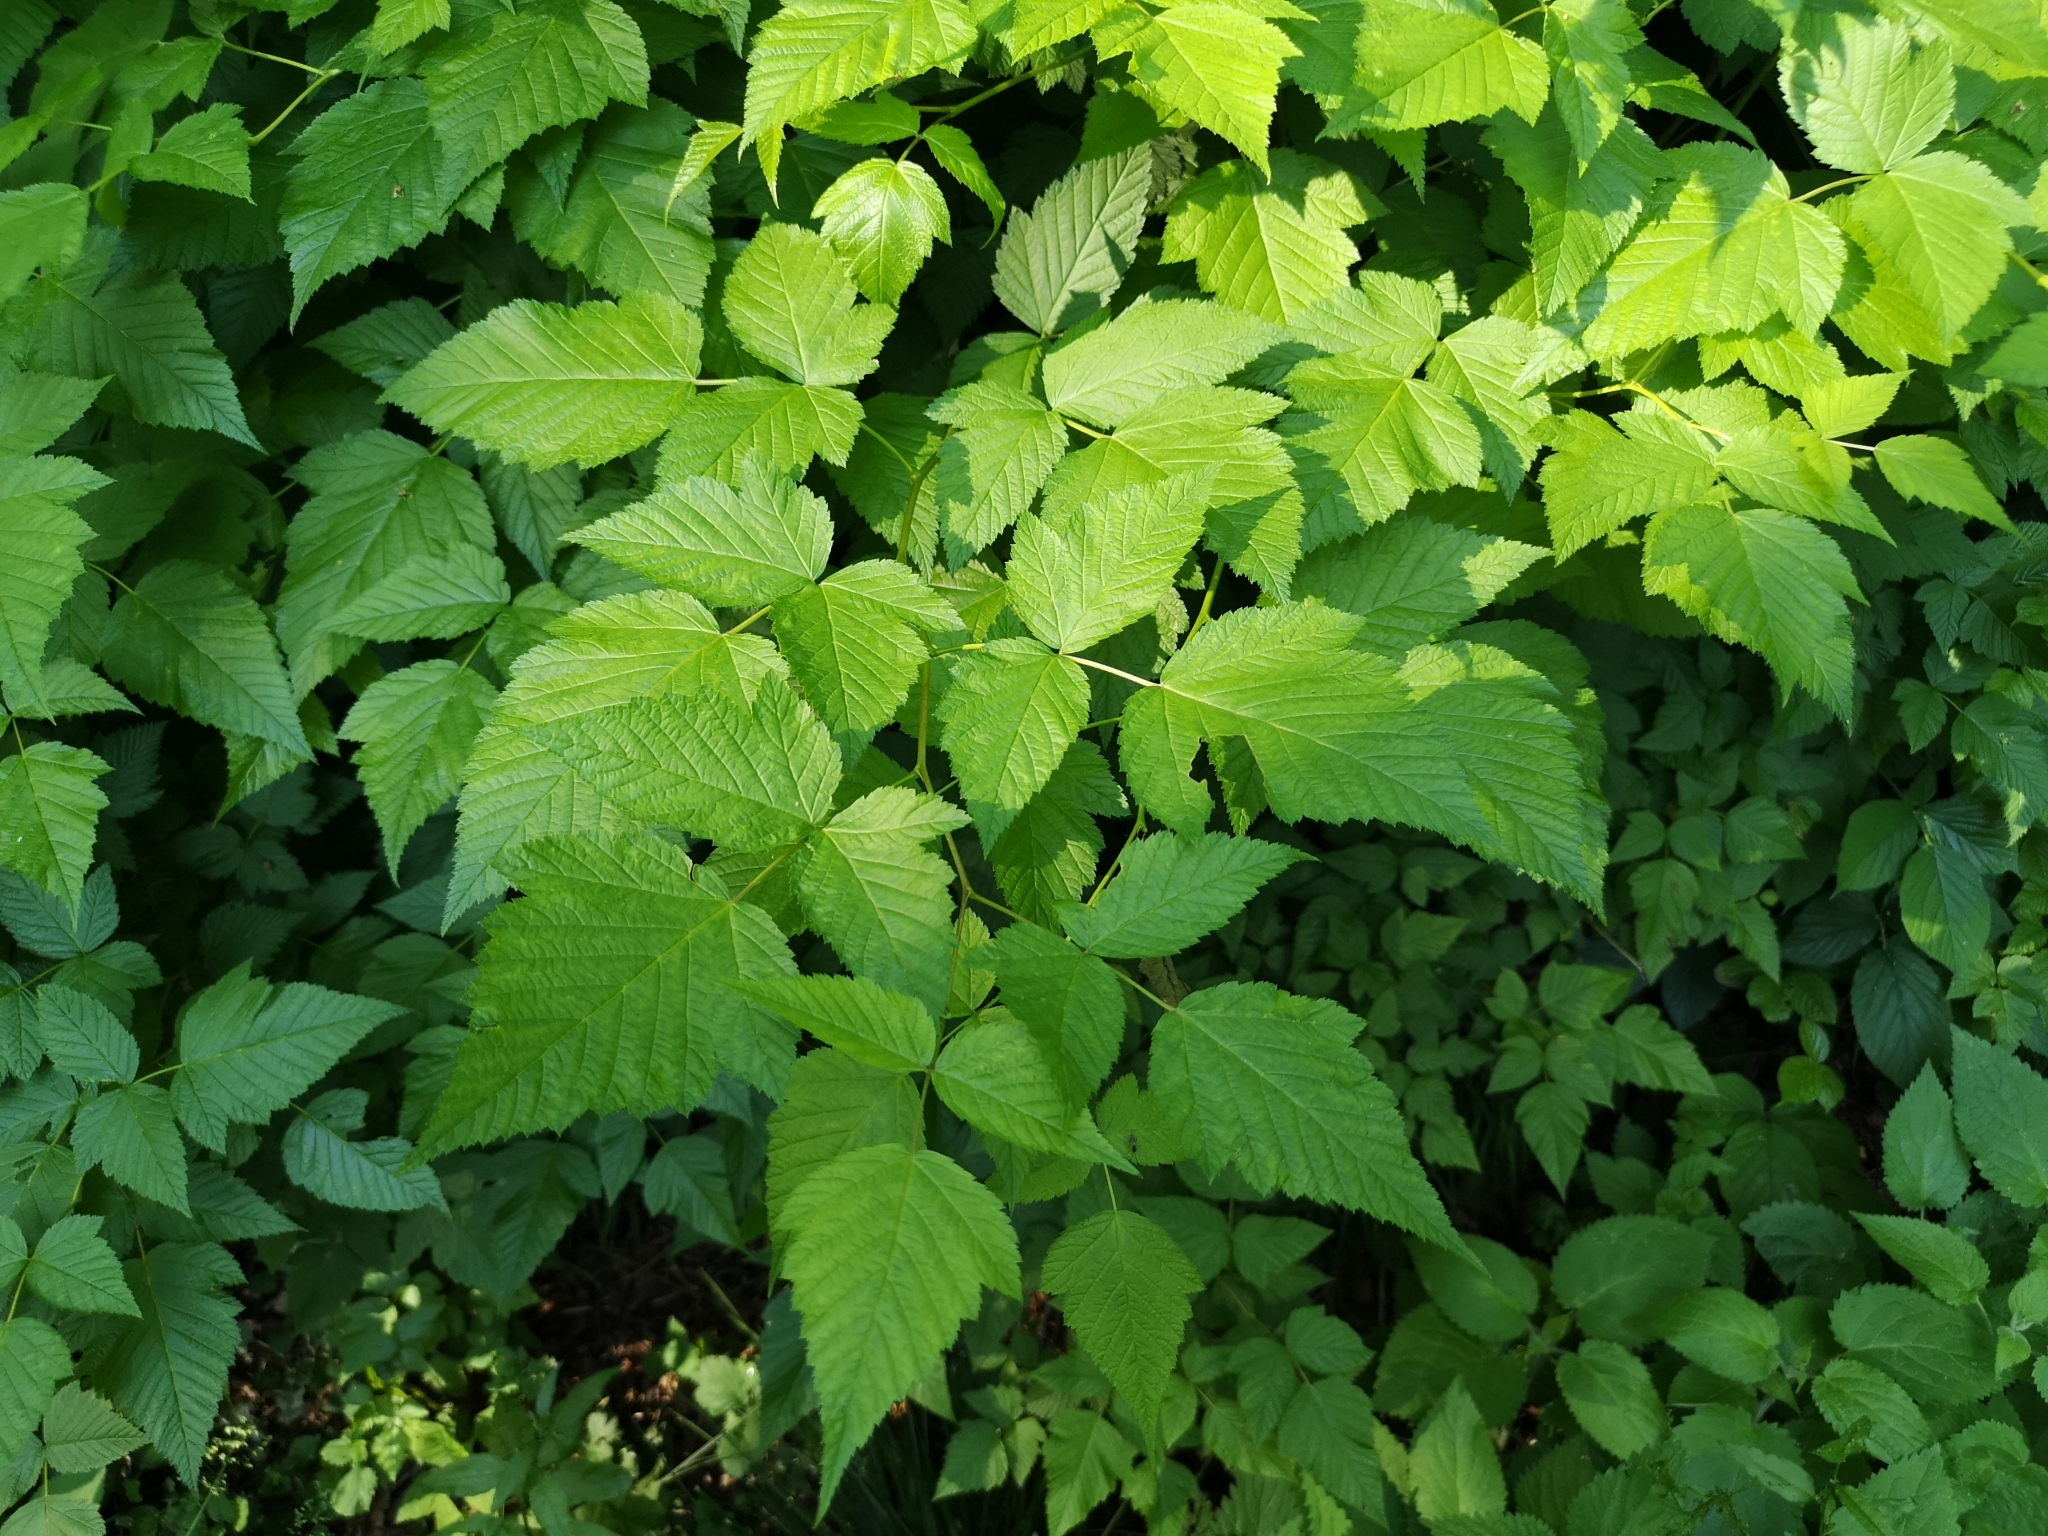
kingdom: Plantae
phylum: Tracheophyta
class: Magnoliopsida
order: Rosales
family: Rosaceae
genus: Rubus
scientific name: Rubus spectabilis
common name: Salmonberry
